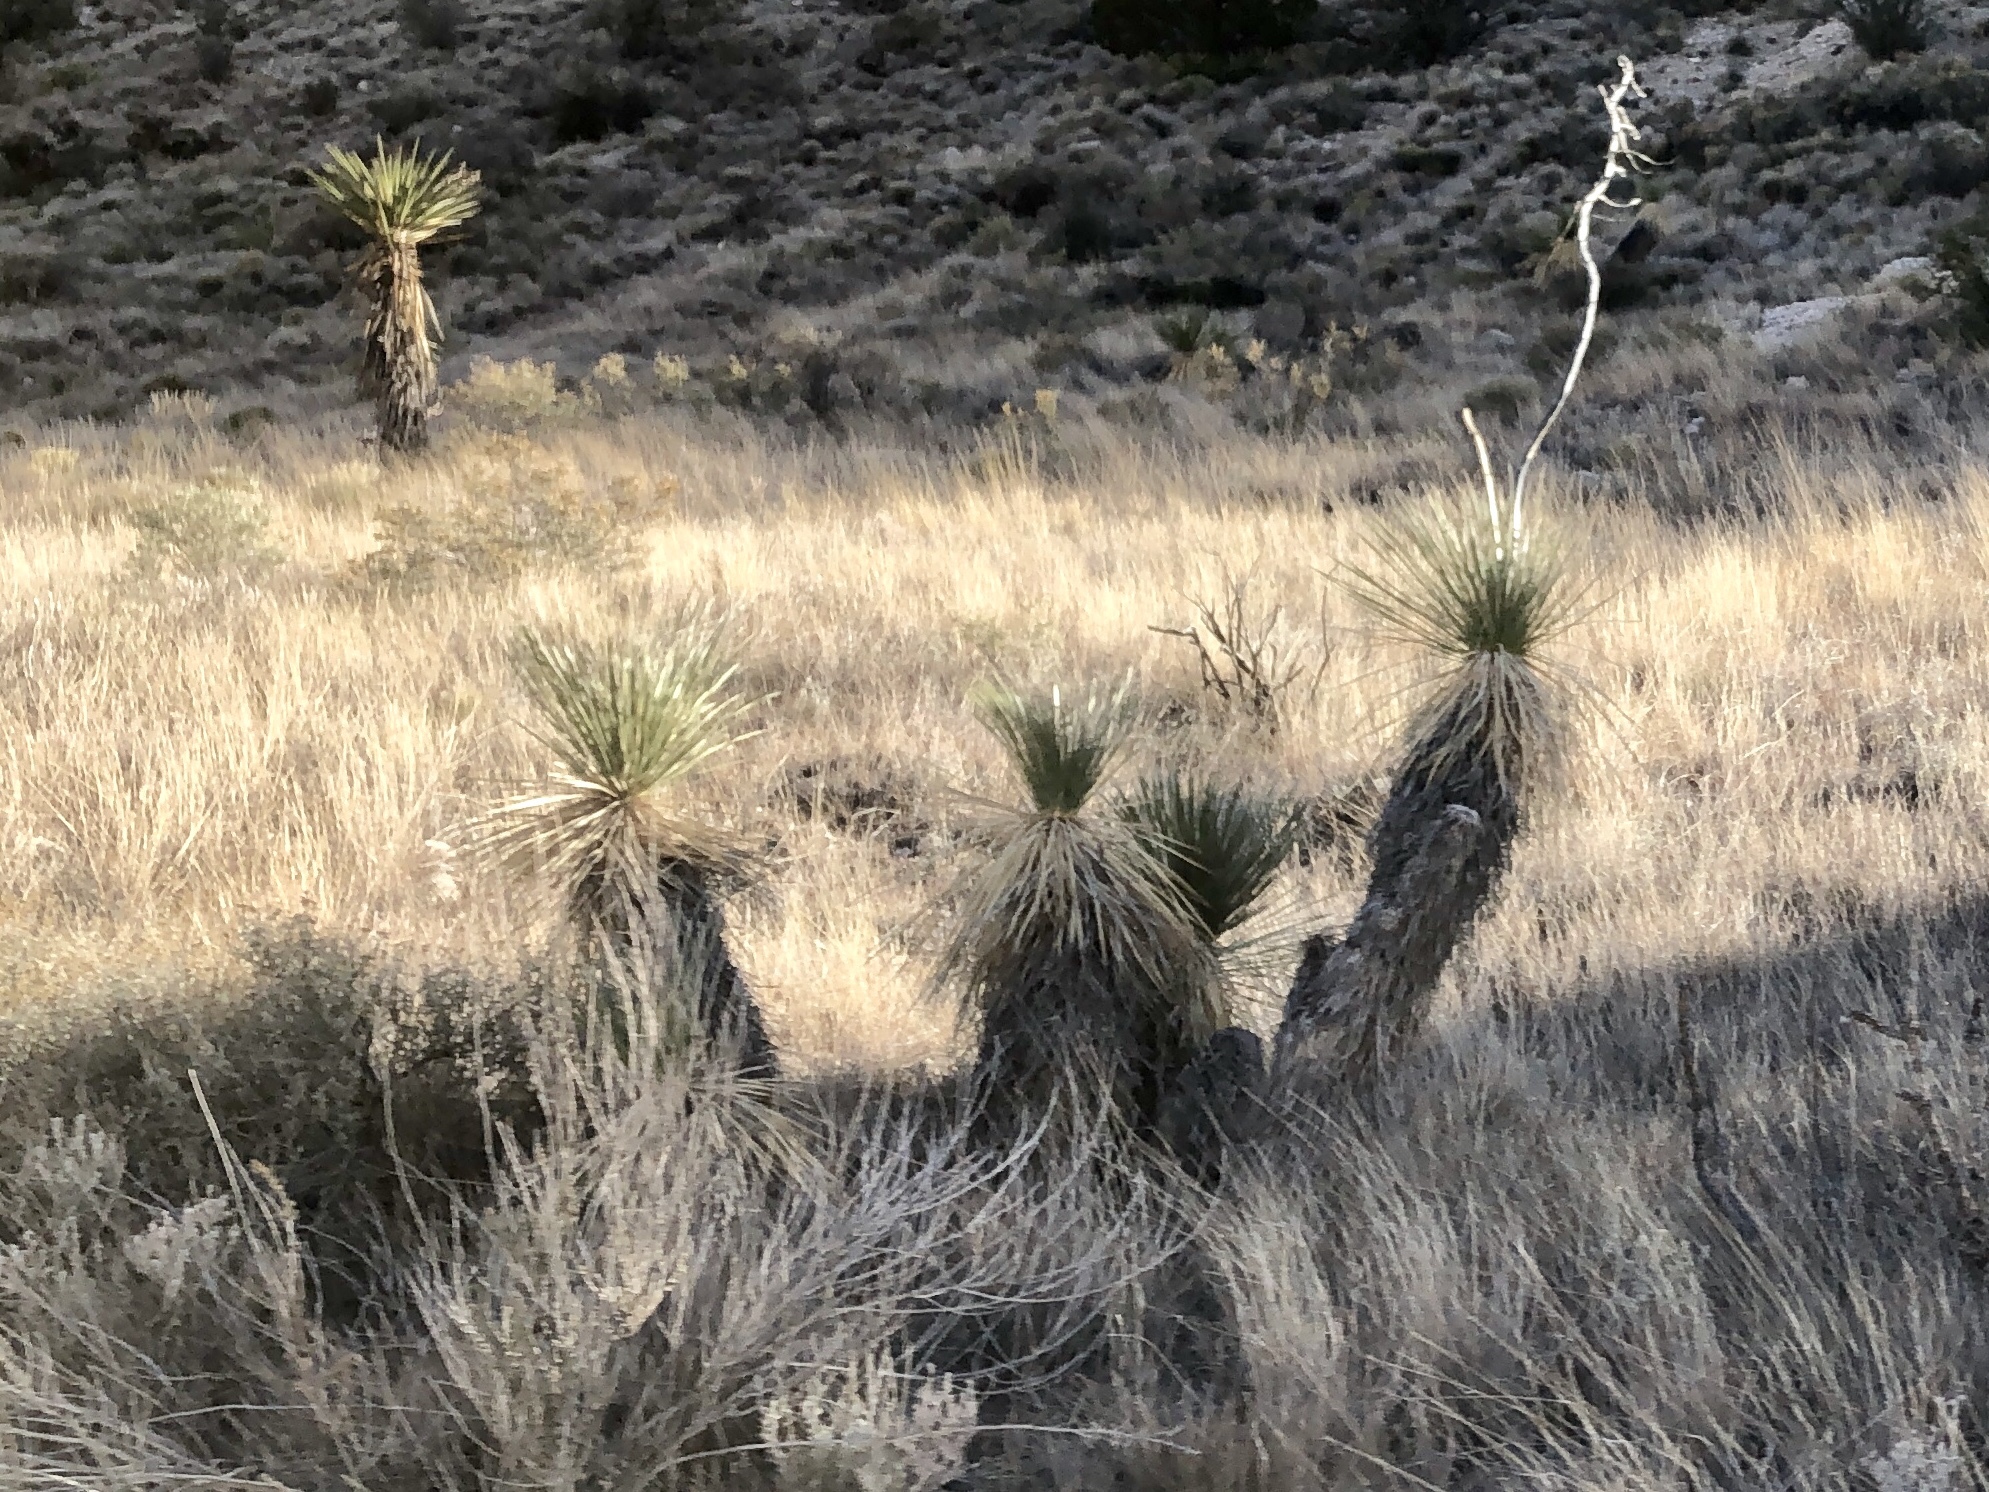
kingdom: Plantae
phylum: Tracheophyta
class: Liliopsida
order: Asparagales
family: Asparagaceae
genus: Yucca
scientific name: Yucca elata
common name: Palmella
